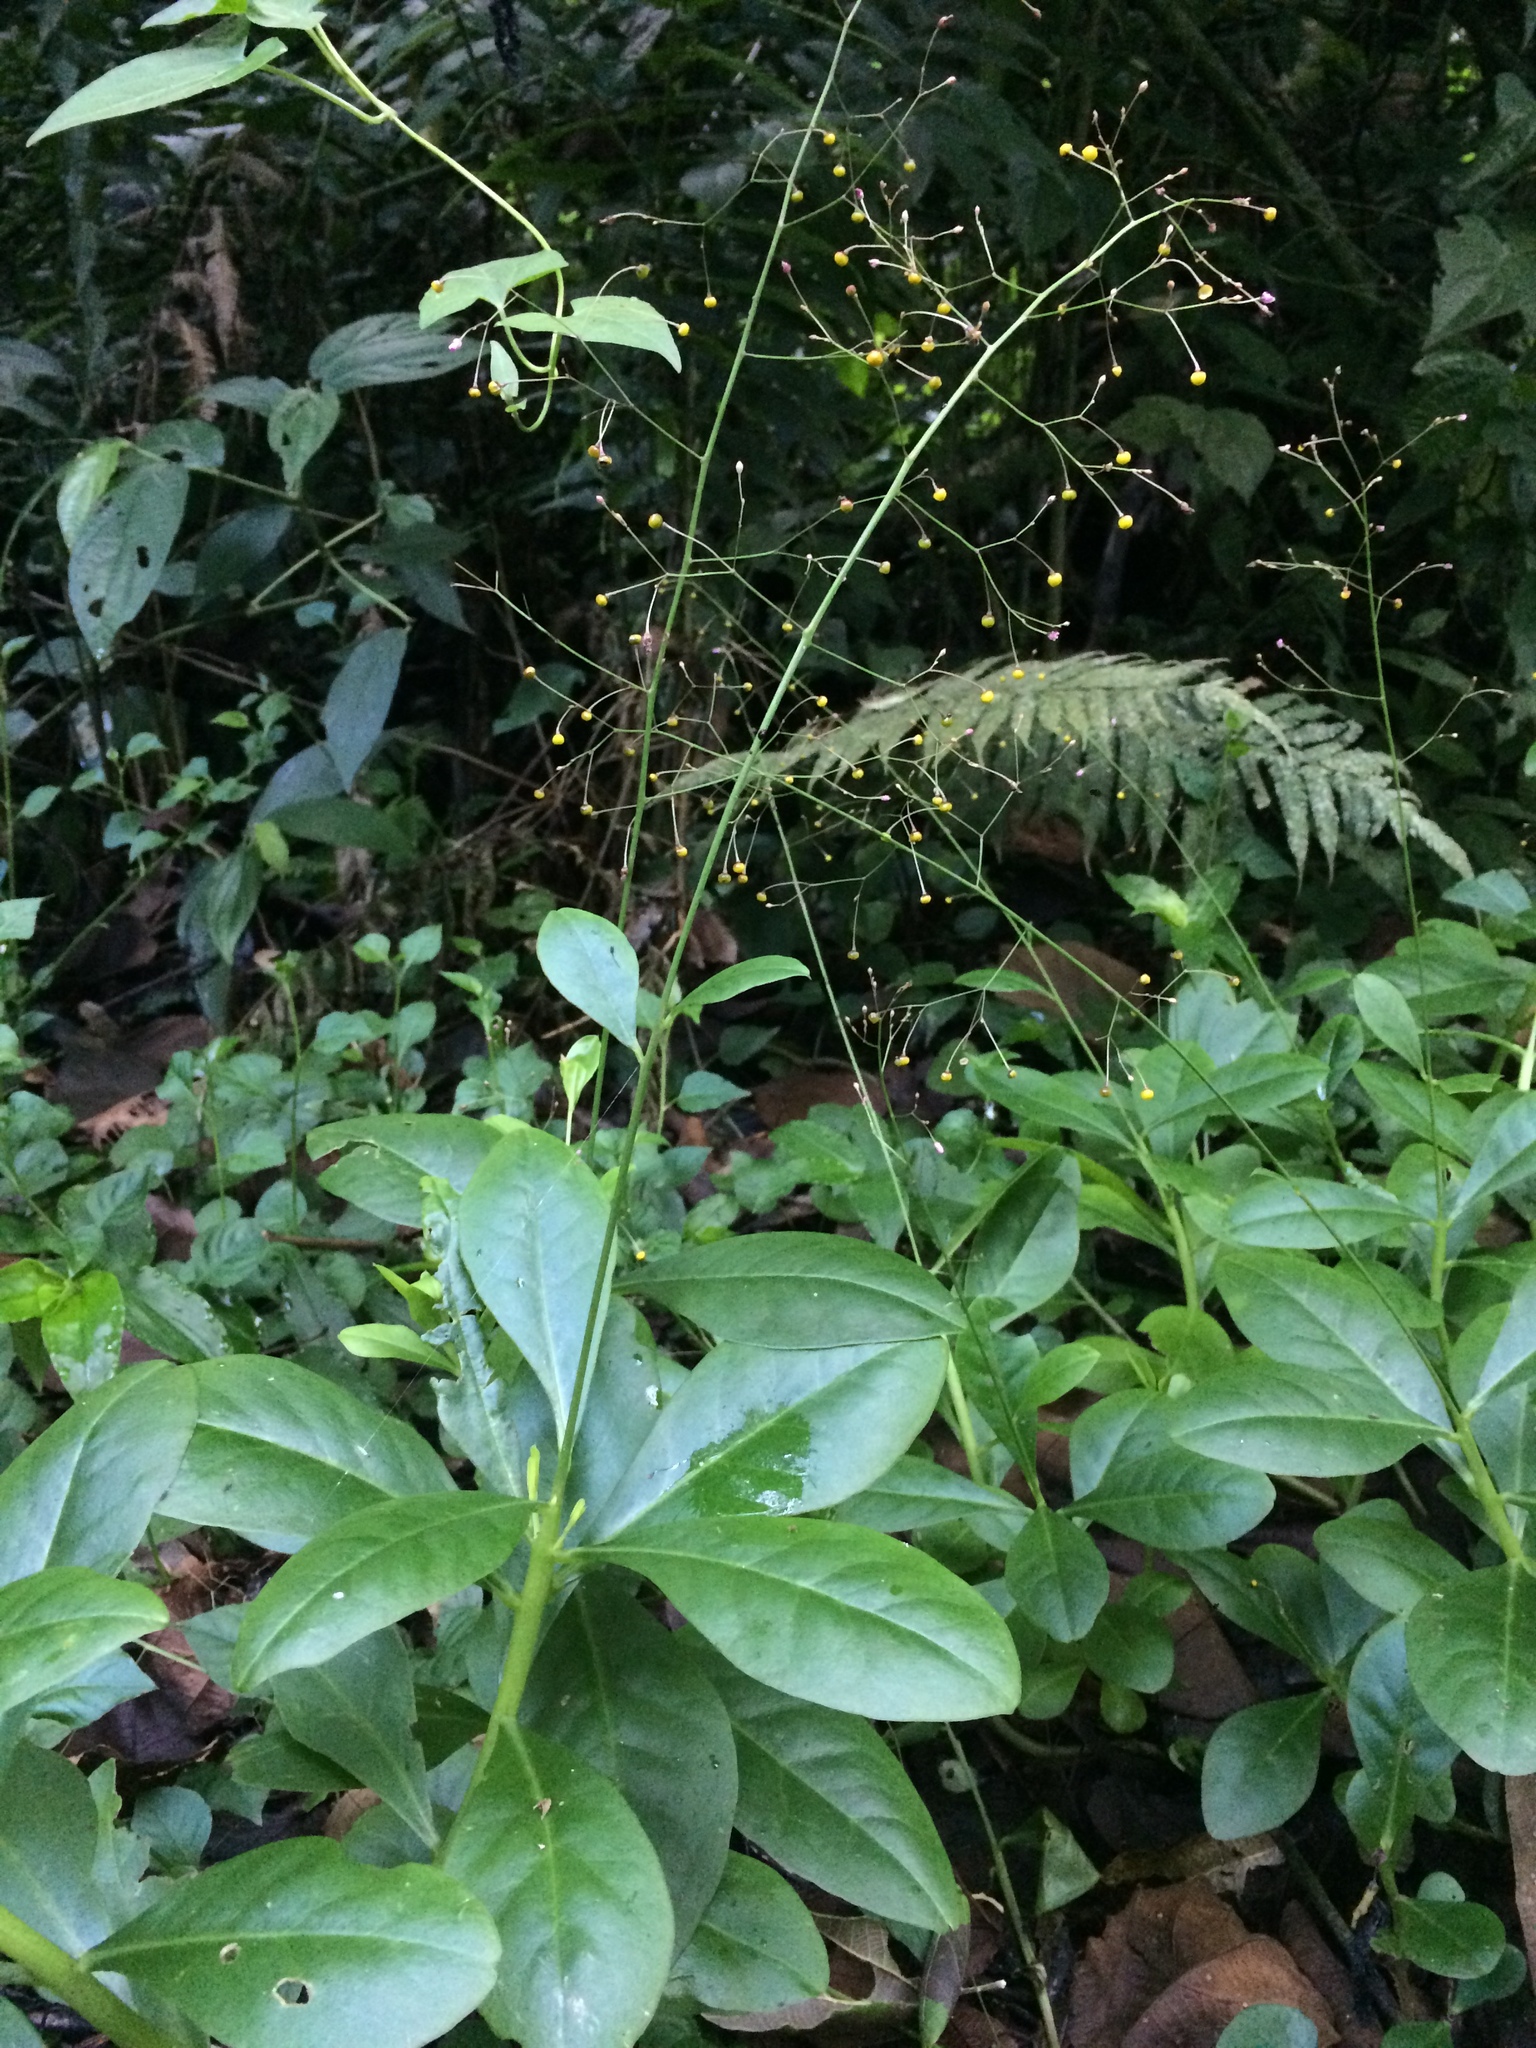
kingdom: Plantae
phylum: Tracheophyta
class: Magnoliopsida
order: Caryophyllales
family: Talinaceae
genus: Talinum
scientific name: Talinum paniculatum
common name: Jewels of opar
